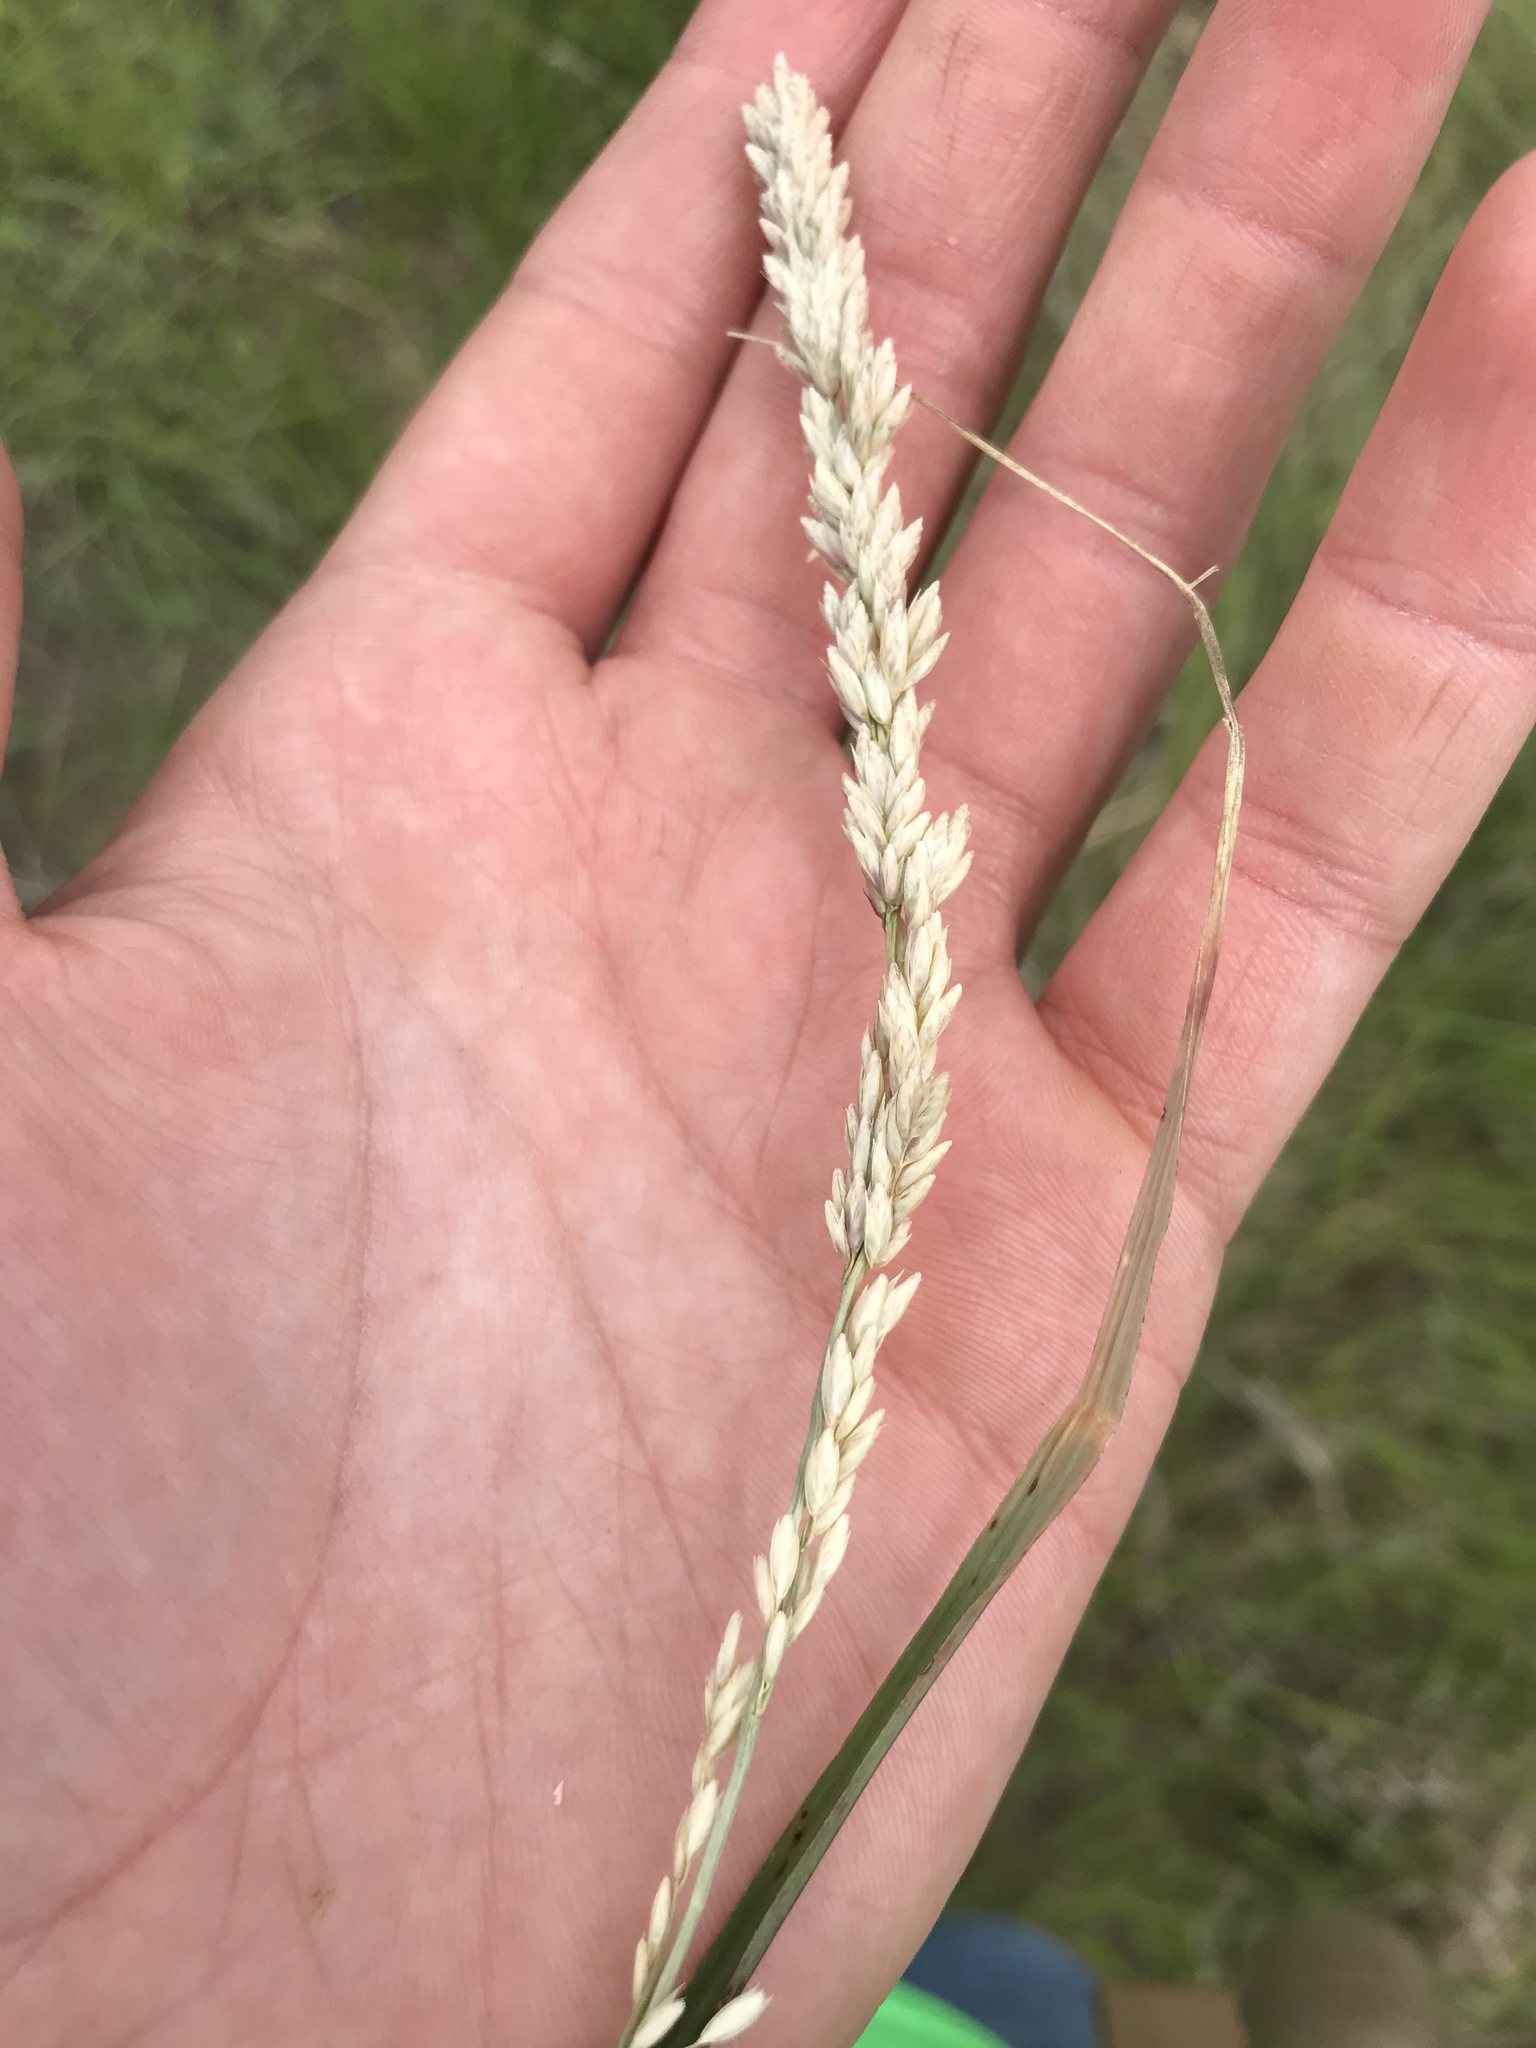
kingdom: Plantae
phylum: Tracheophyta
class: Liliopsida
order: Poales
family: Poaceae
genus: Tridens
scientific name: Tridens albescens
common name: White tridens
